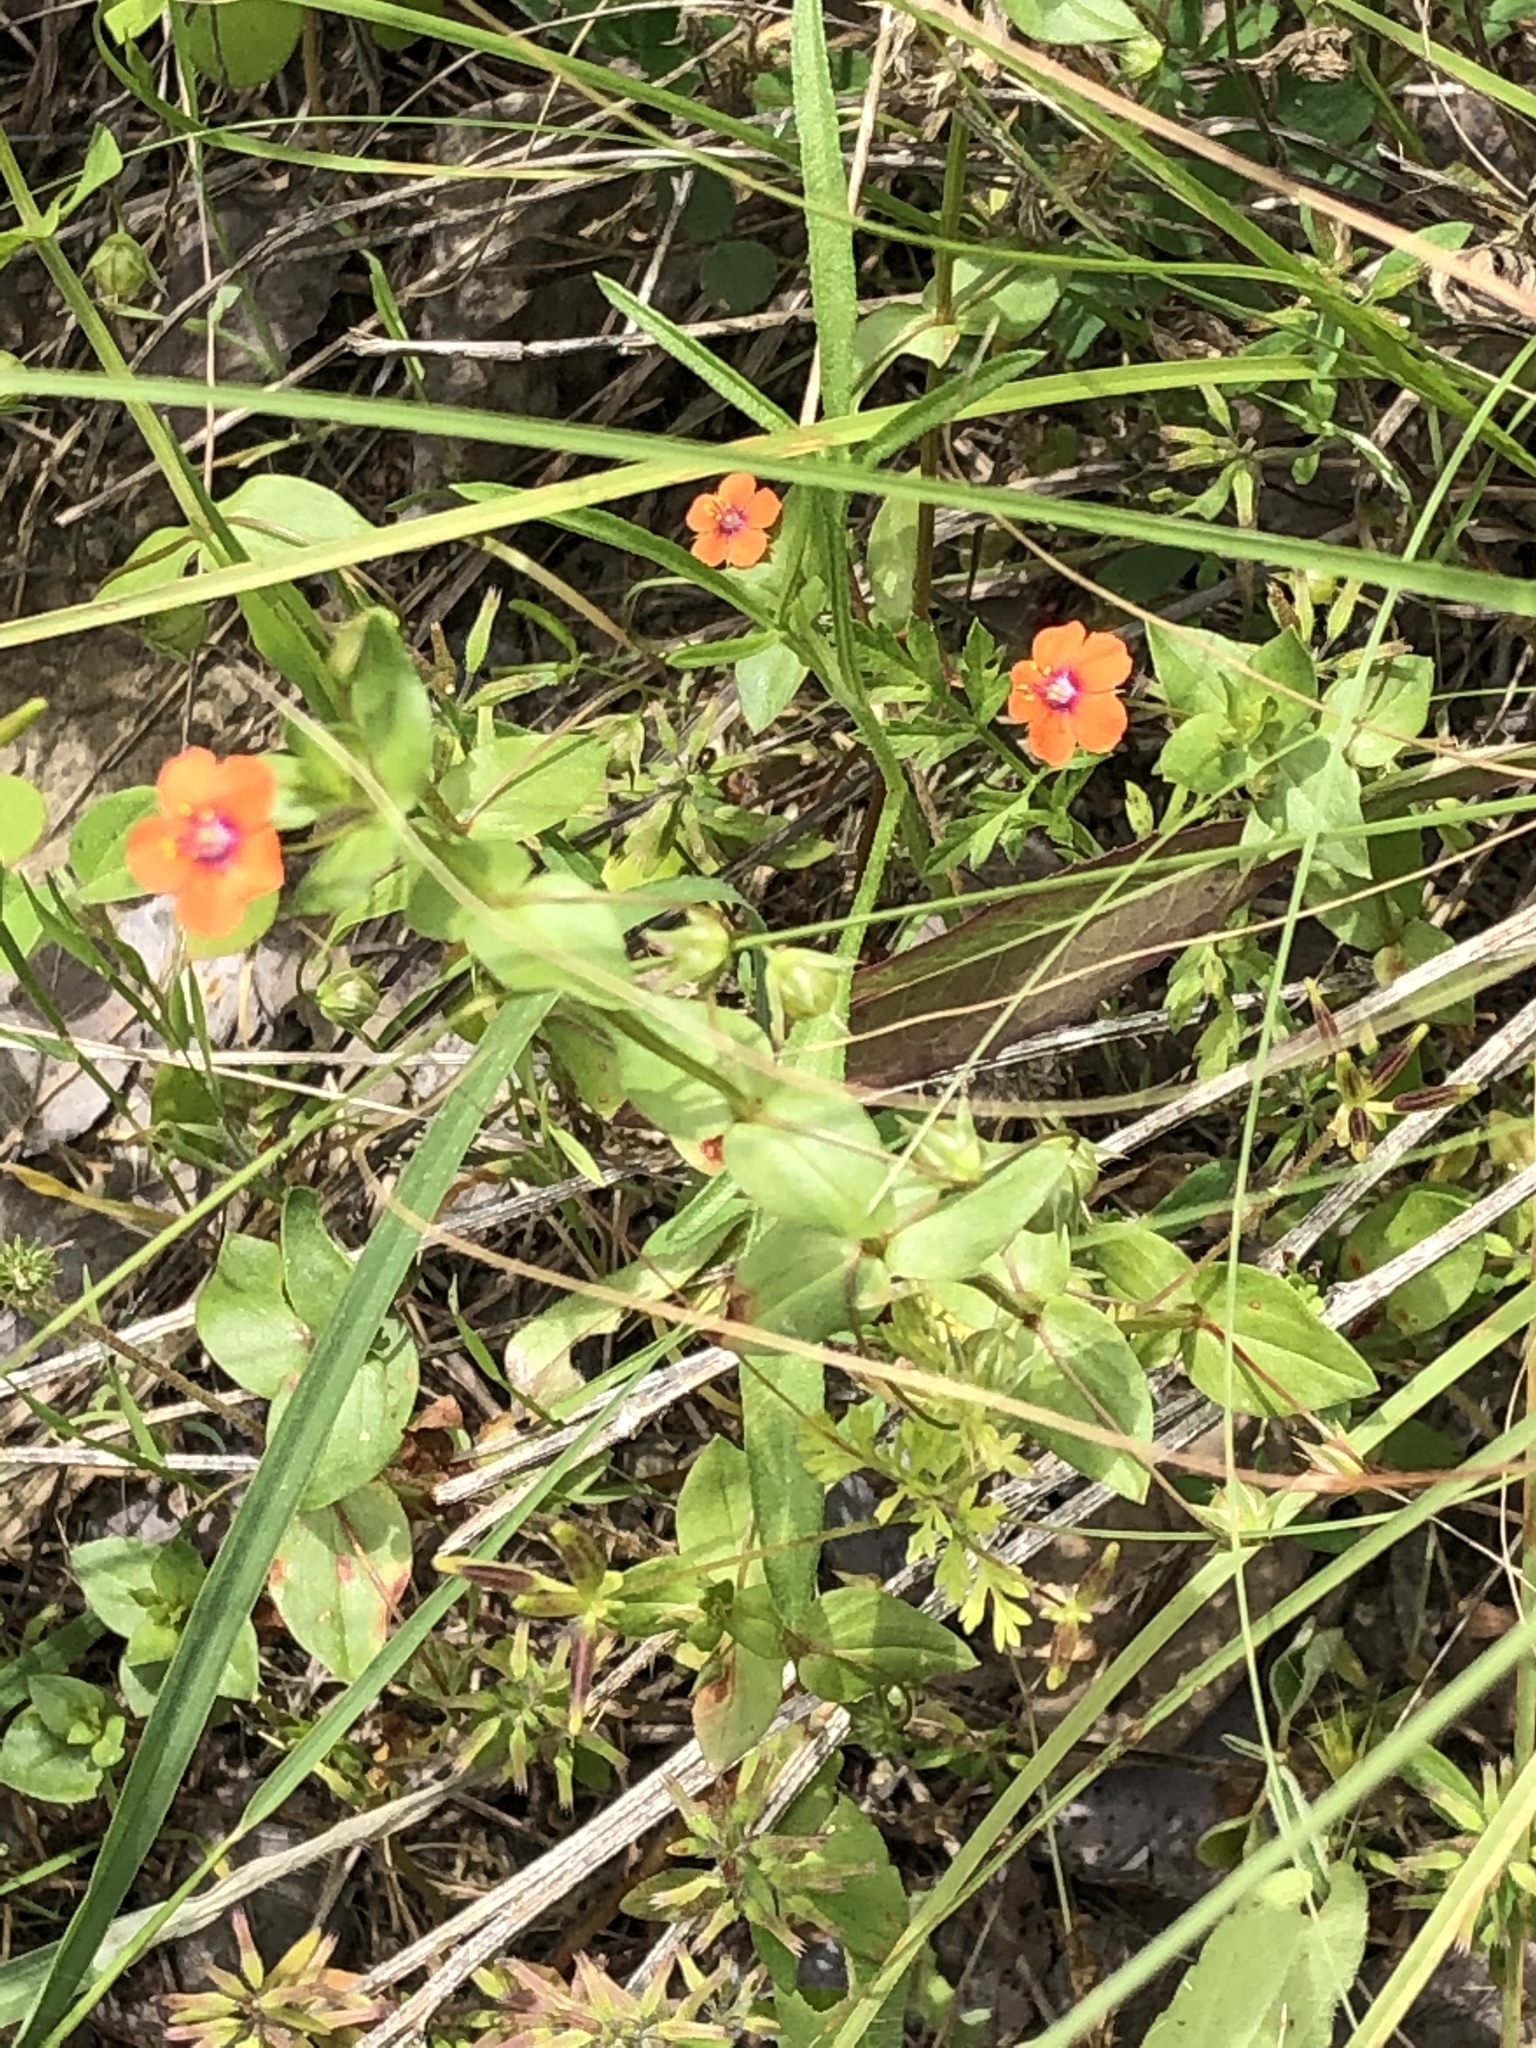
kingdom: Plantae
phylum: Tracheophyta
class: Magnoliopsida
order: Ericales
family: Primulaceae
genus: Lysimachia
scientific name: Lysimachia arvensis
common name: Scarlet pimpernel
